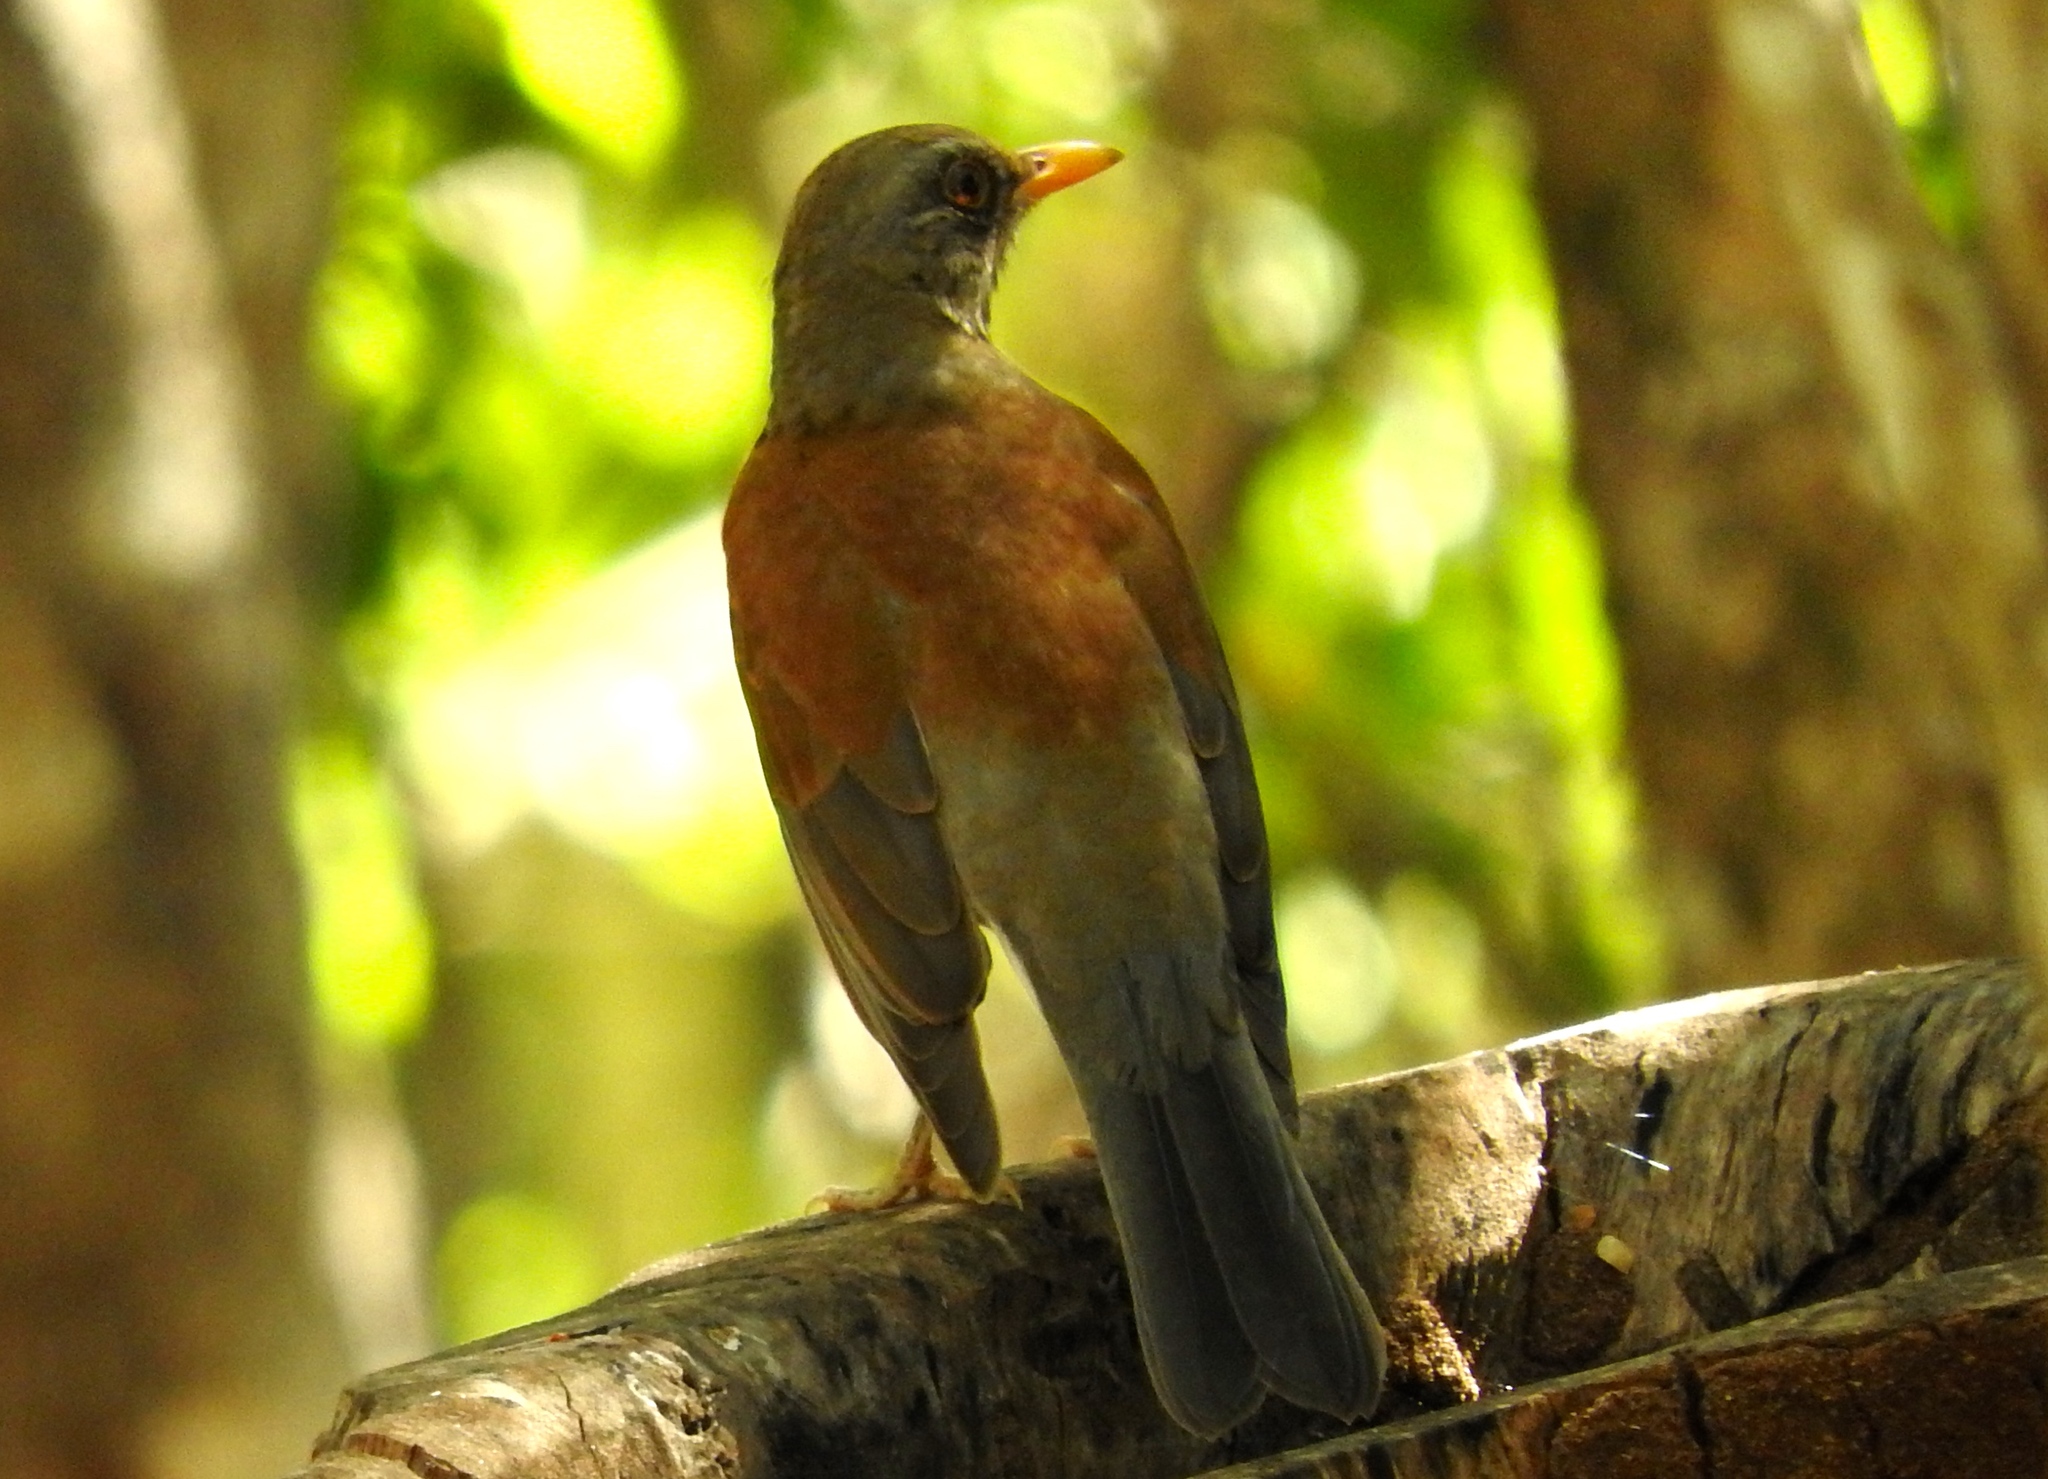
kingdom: Animalia
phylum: Chordata
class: Aves
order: Passeriformes
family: Turdidae
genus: Turdus
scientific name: Turdus rufopalliatus
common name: Rufous-backed robin
